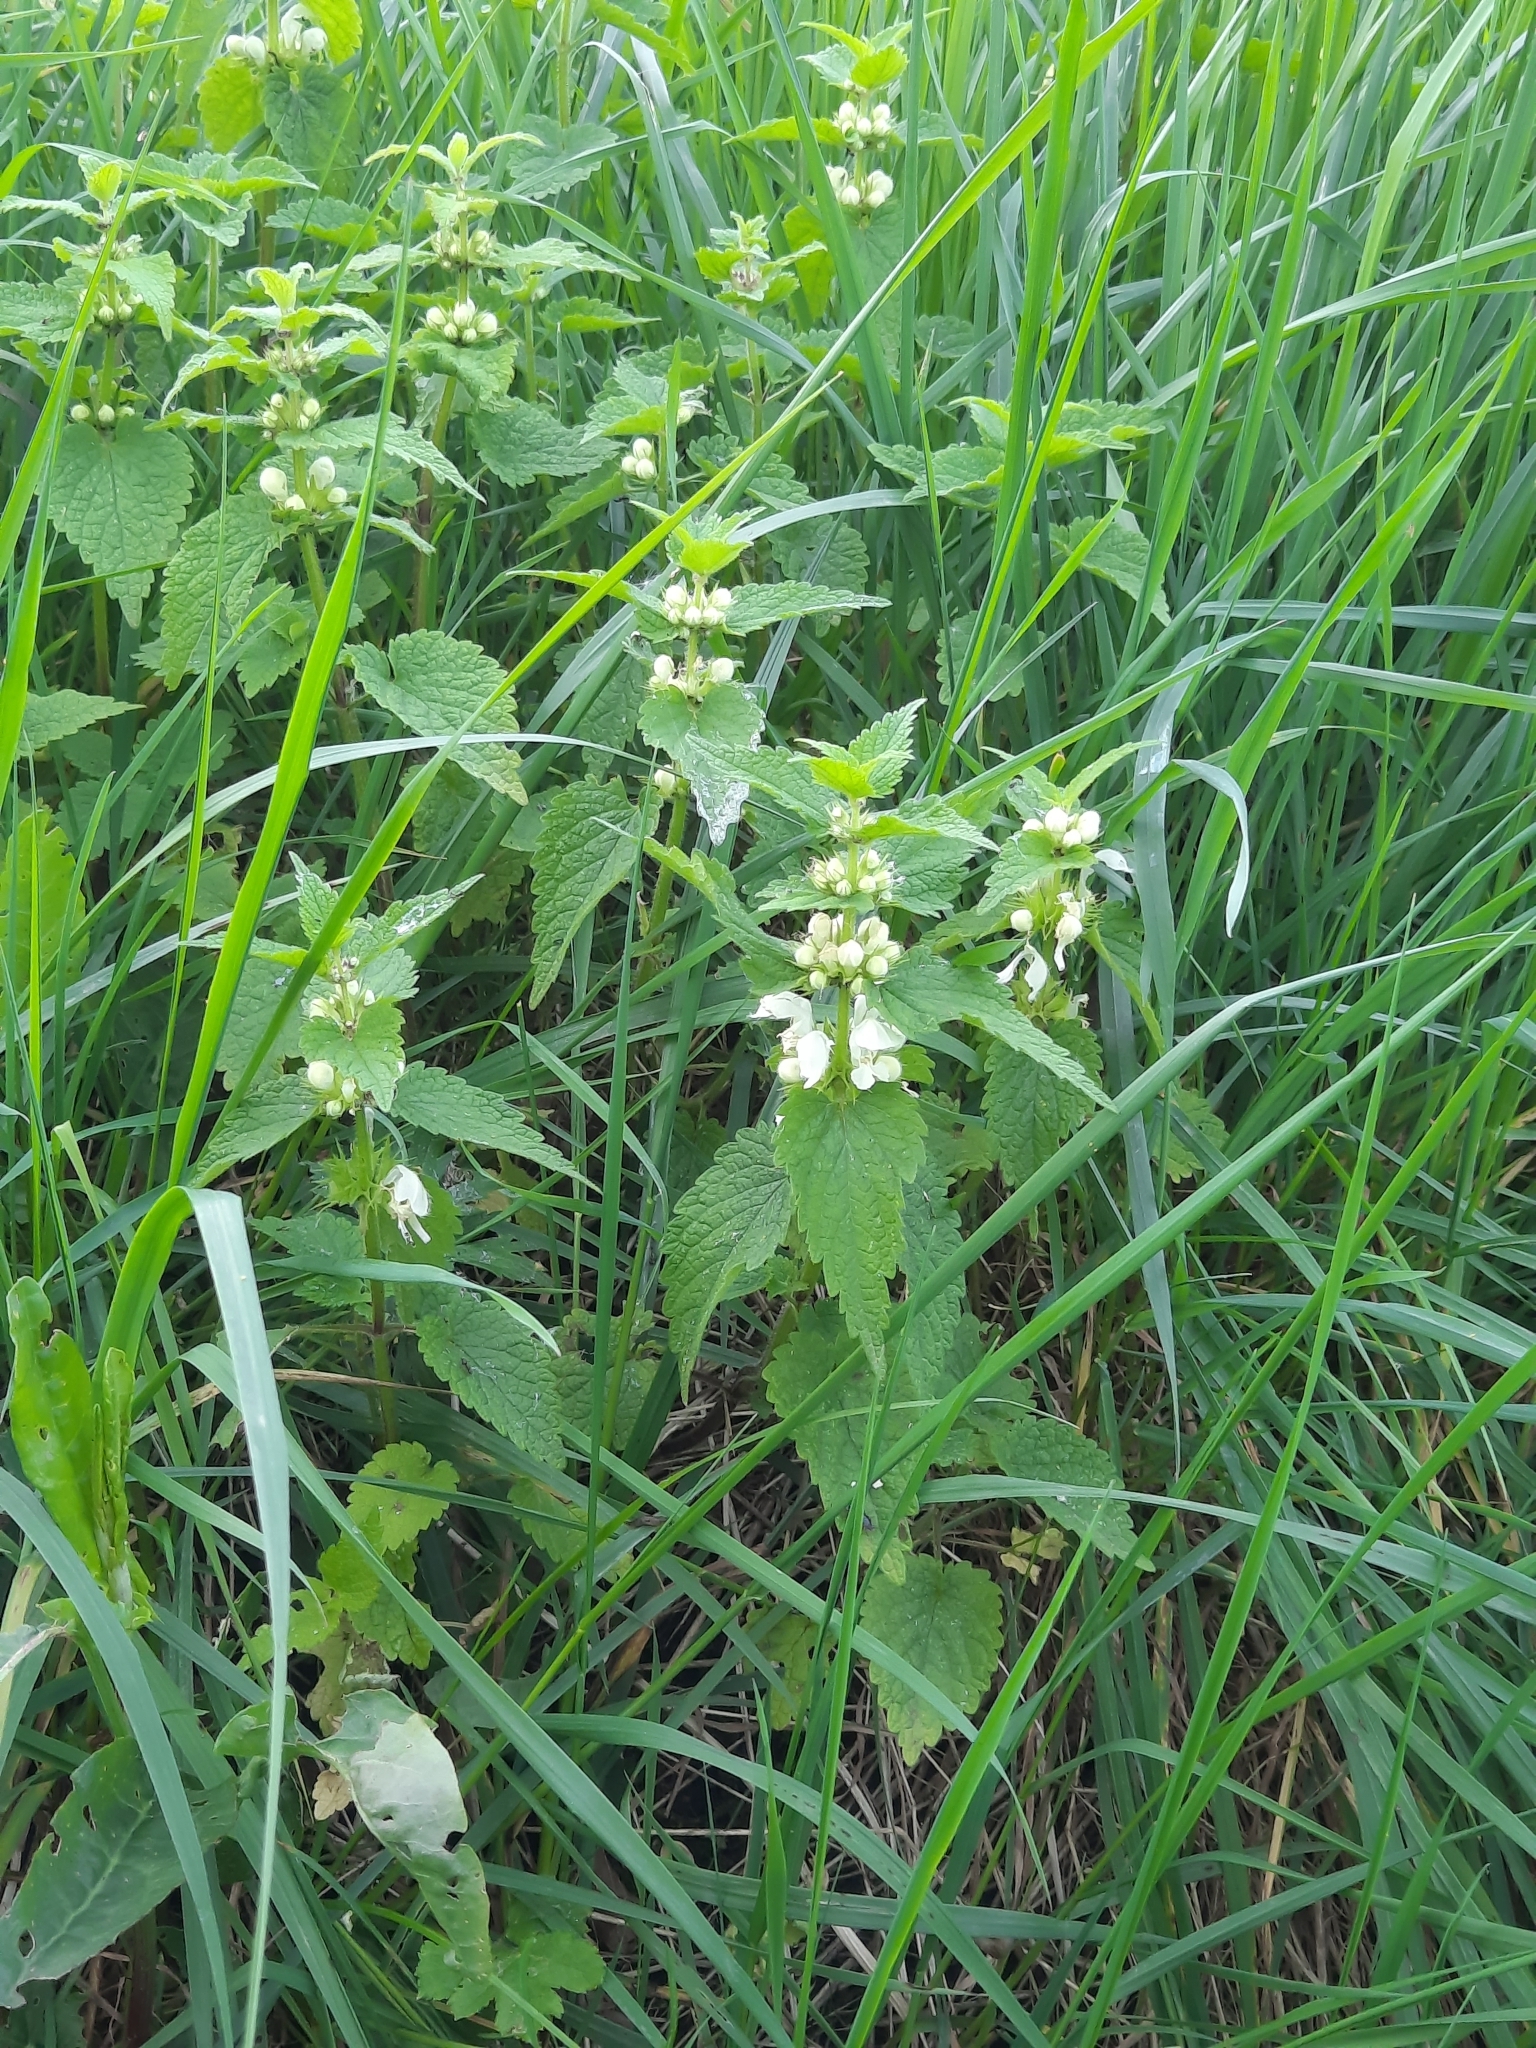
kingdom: Plantae
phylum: Tracheophyta
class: Magnoliopsida
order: Lamiales
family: Lamiaceae
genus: Lamium
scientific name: Lamium album
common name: White dead-nettle
